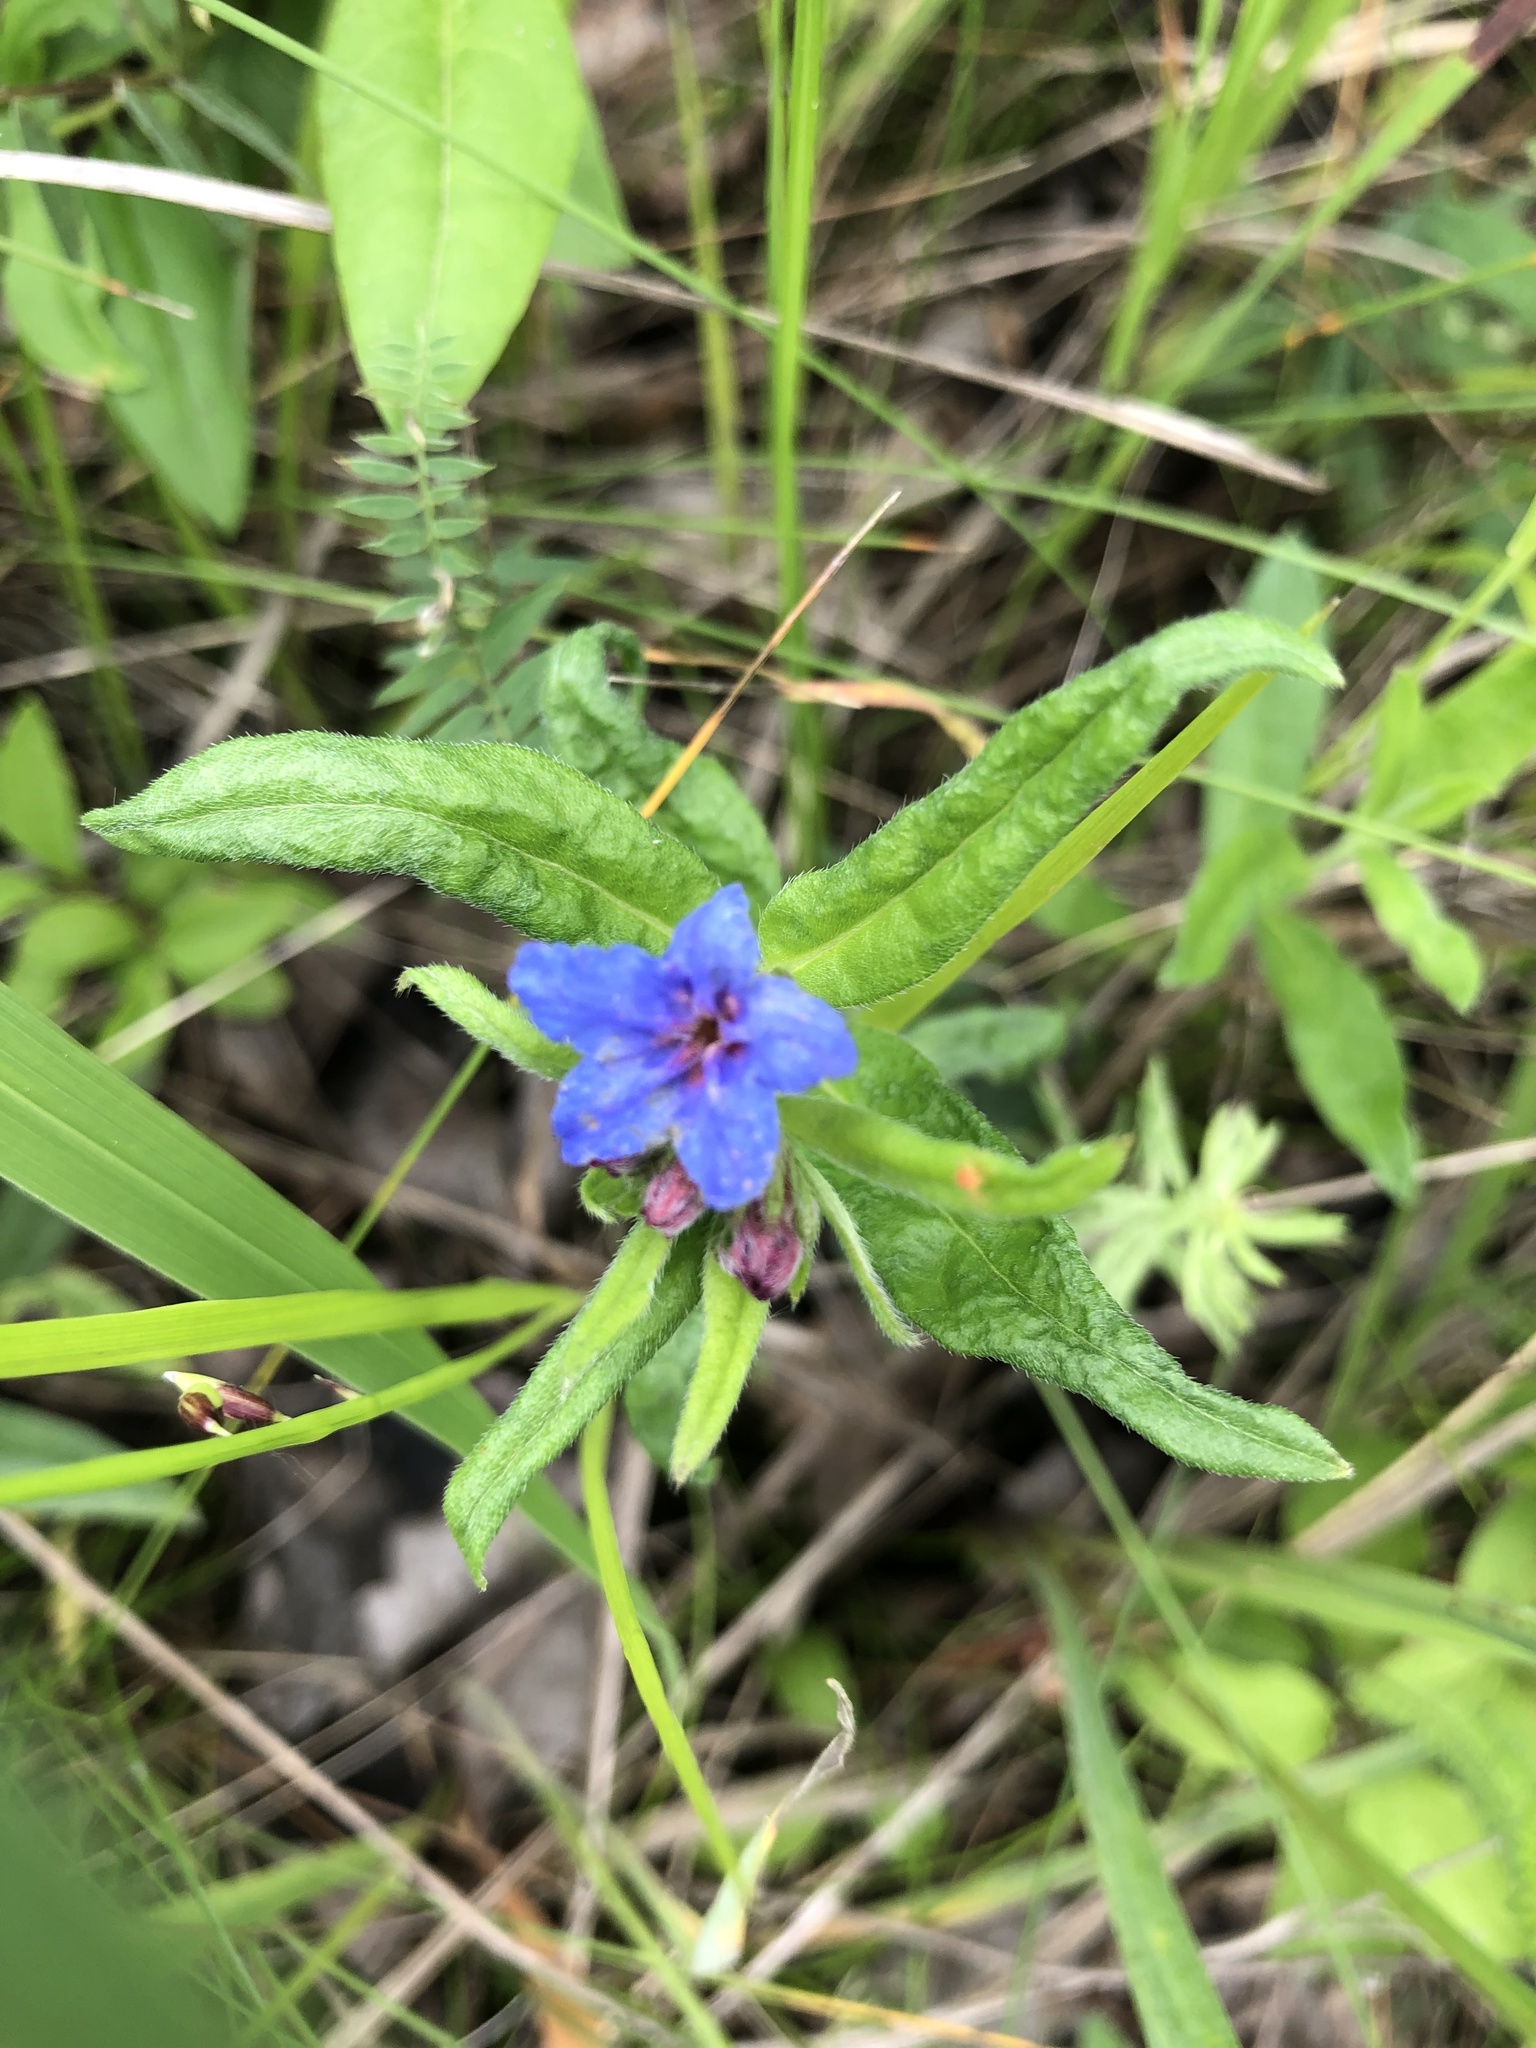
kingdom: Plantae
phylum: Tracheophyta
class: Magnoliopsida
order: Boraginales
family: Boraginaceae
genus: Aegonychon
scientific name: Aegonychon purpurocaeruleum
